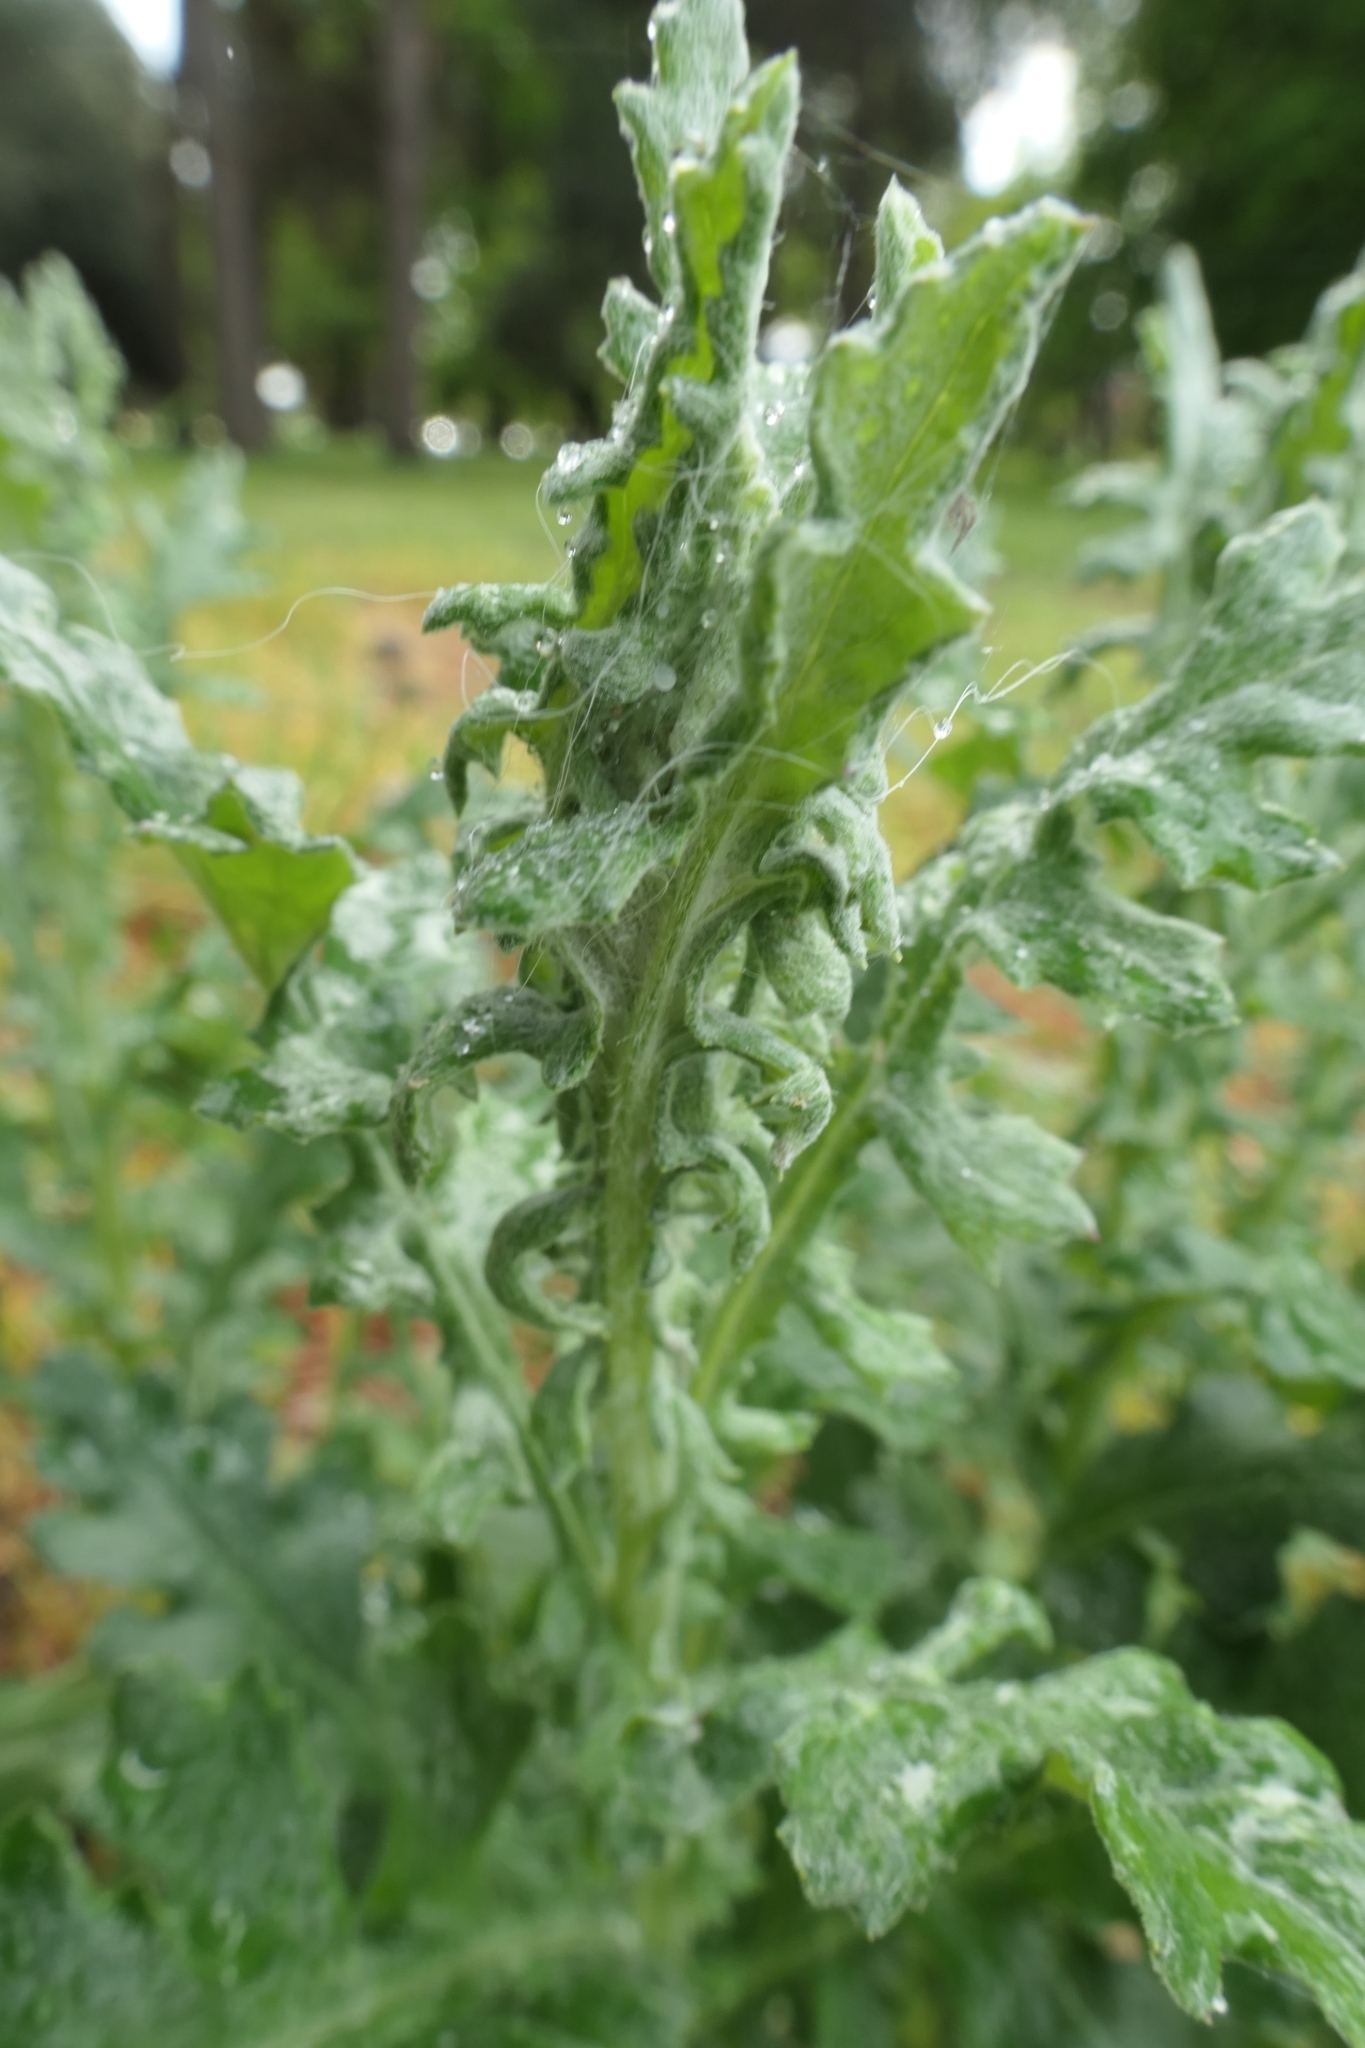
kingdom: Plantae
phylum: Tracheophyta
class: Magnoliopsida
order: Asterales
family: Asteraceae
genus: Senecio
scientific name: Senecio glomeratus
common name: Cutleaf burnweed
